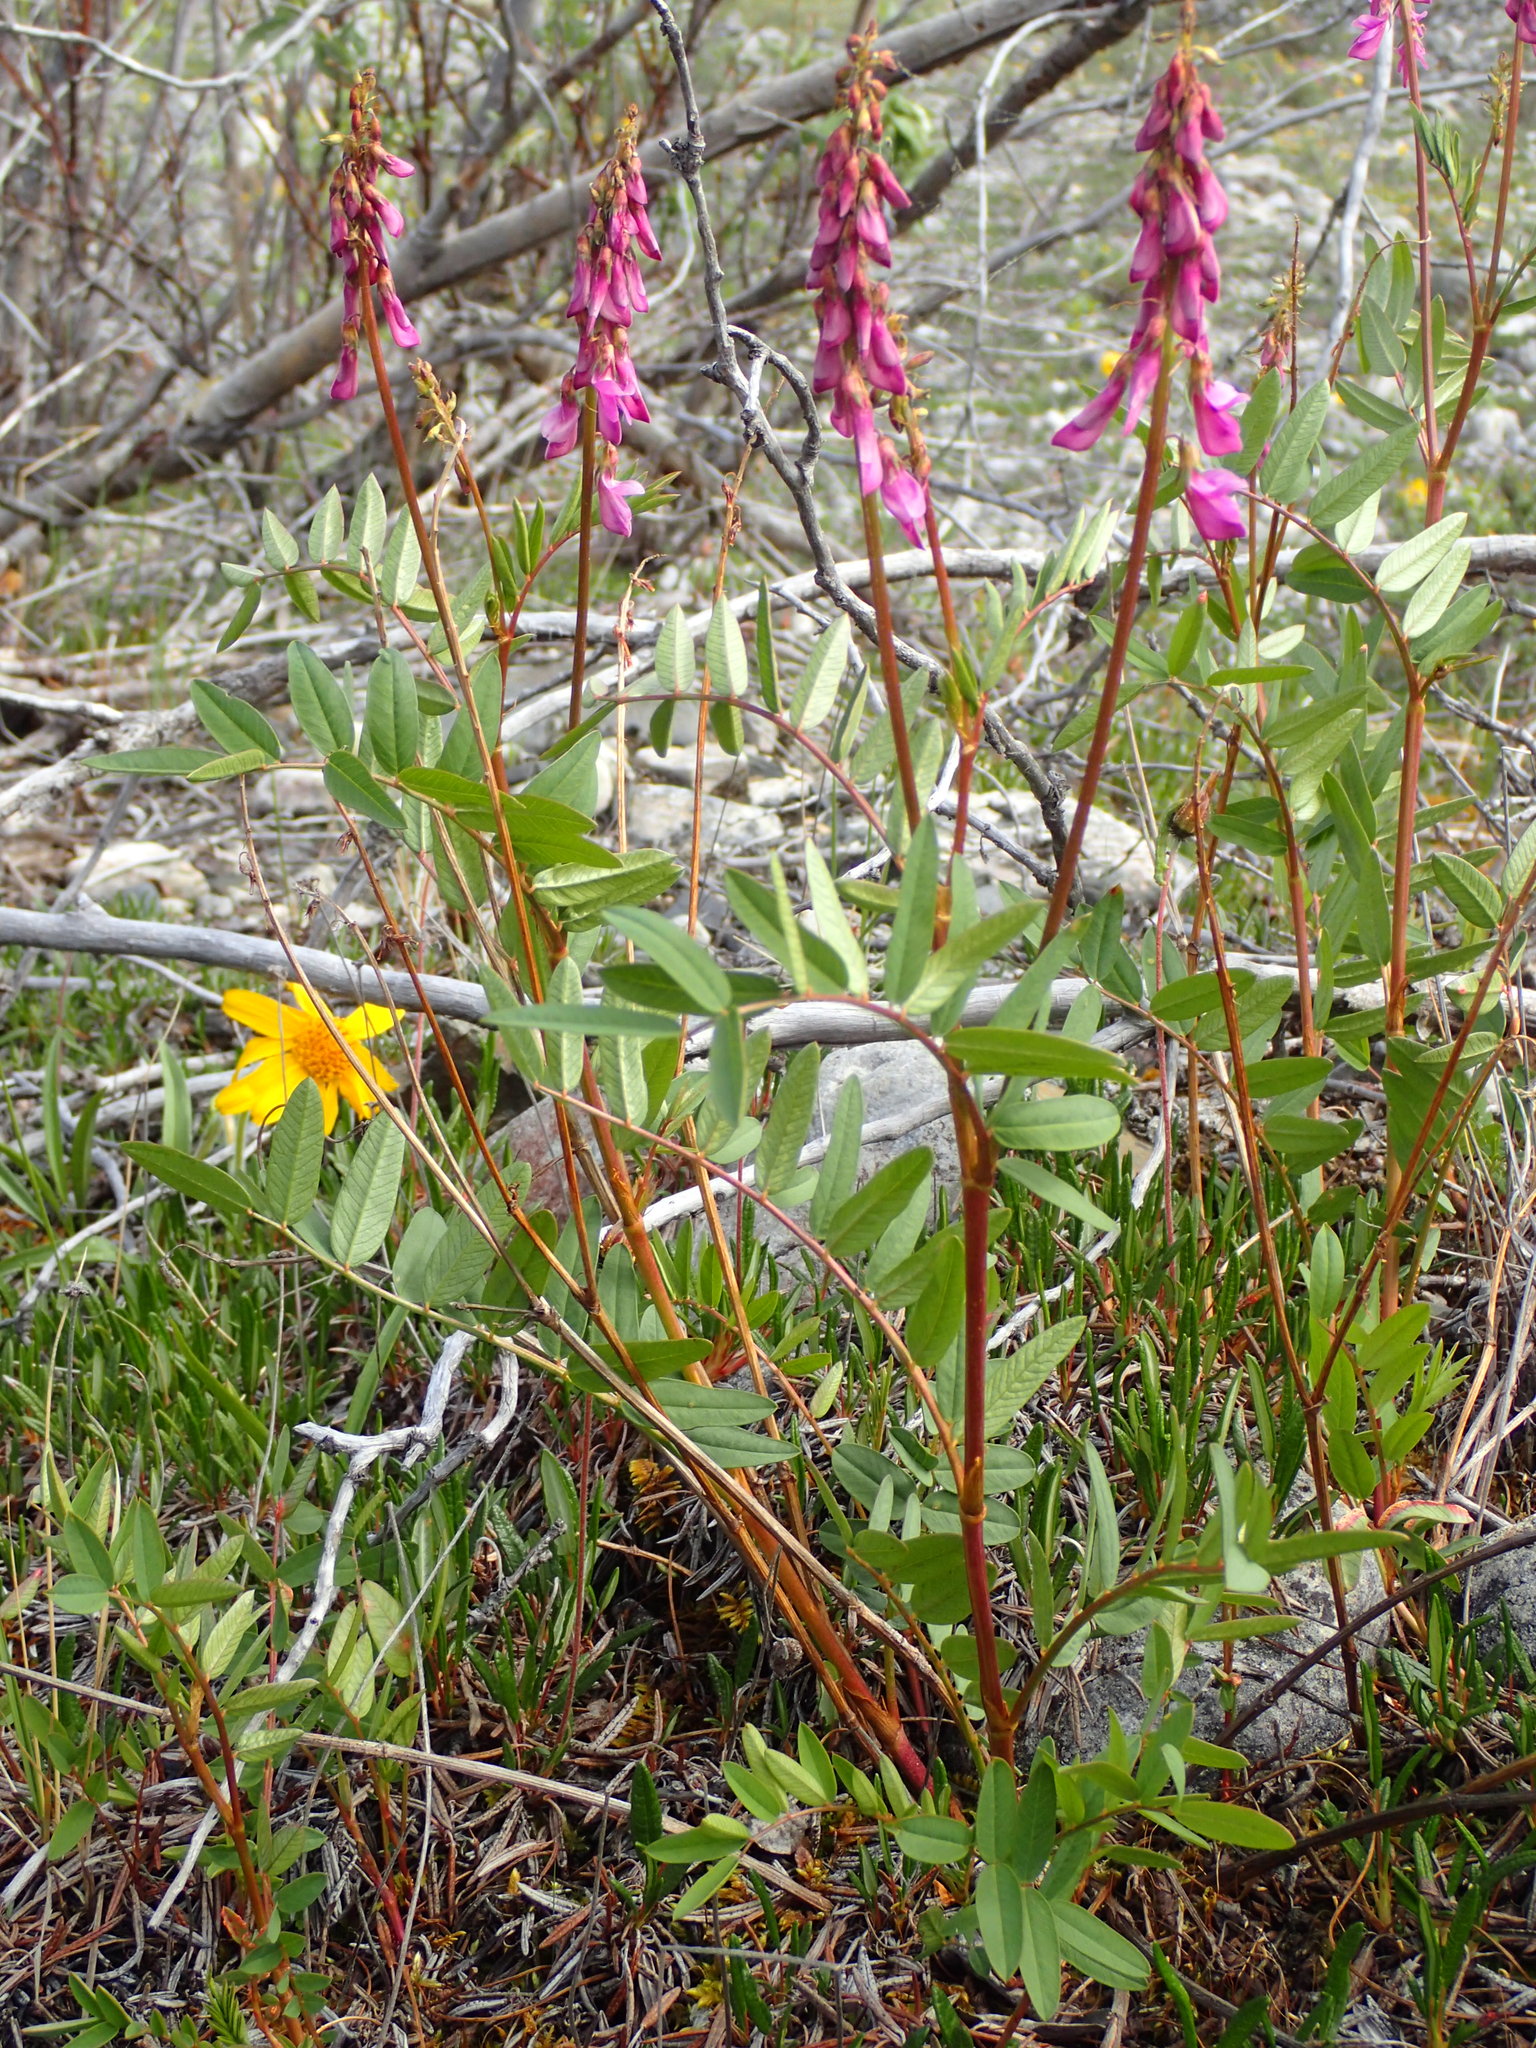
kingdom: Plantae
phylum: Tracheophyta
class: Magnoliopsida
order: Fabales
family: Fabaceae
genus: Hedysarum
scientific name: Hedysarum alpinum
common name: Alpine sweet-vetch
